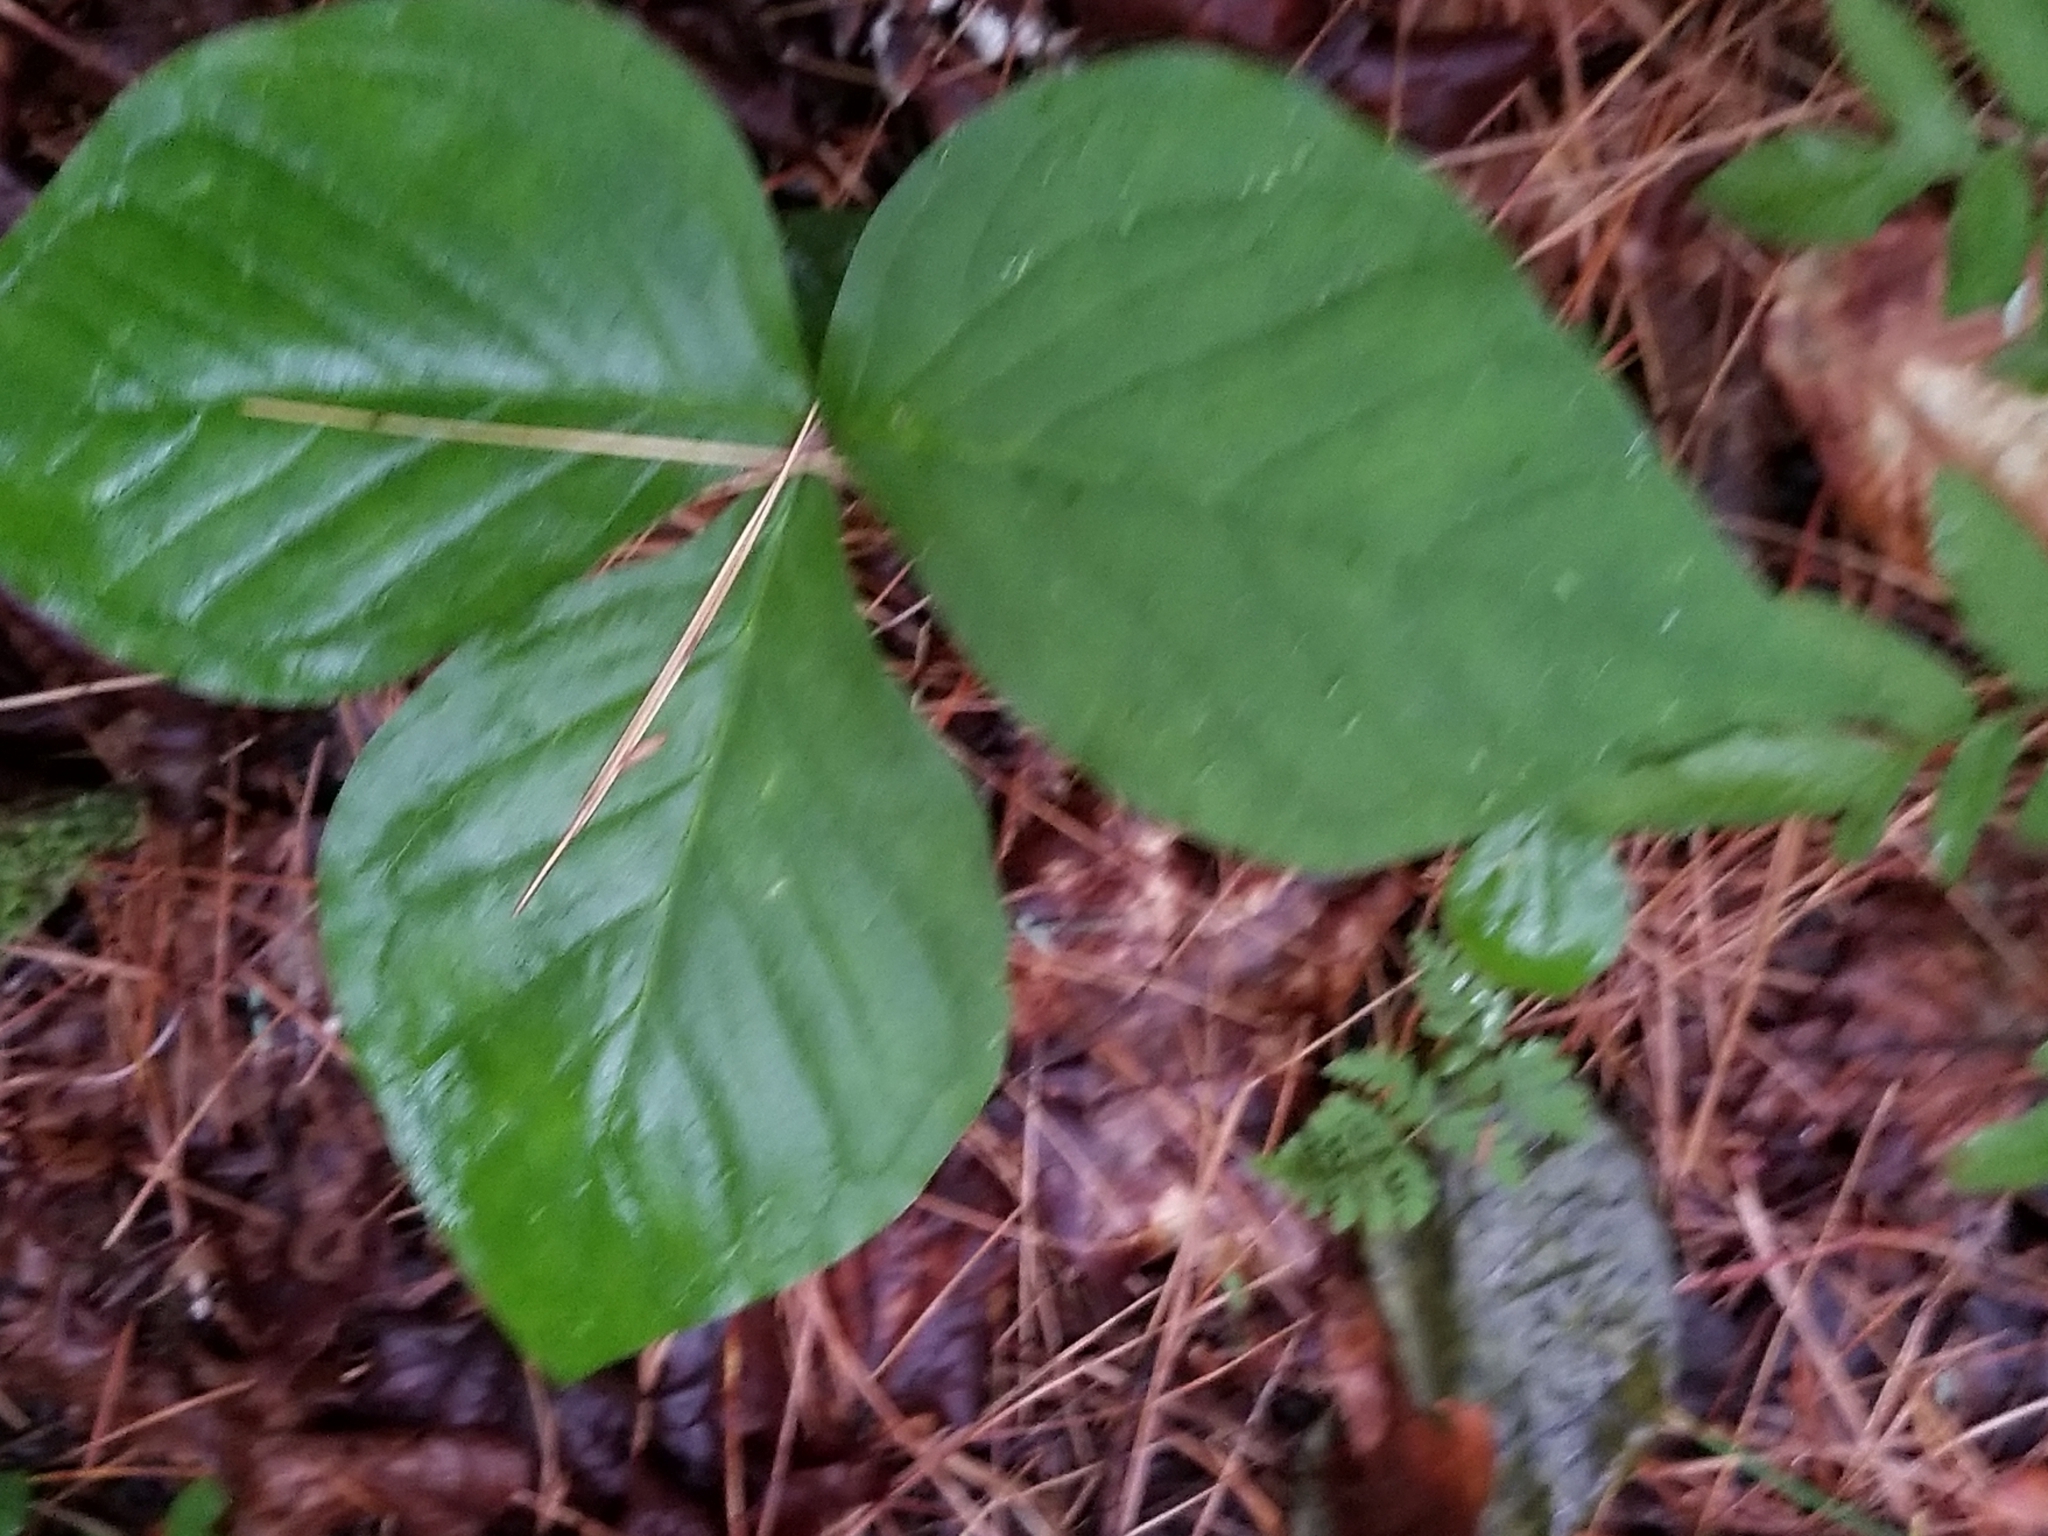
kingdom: Plantae
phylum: Tracheophyta
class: Liliopsida
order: Alismatales
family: Araceae
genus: Arisaema
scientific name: Arisaema triphyllum
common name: Jack-in-the-pulpit
